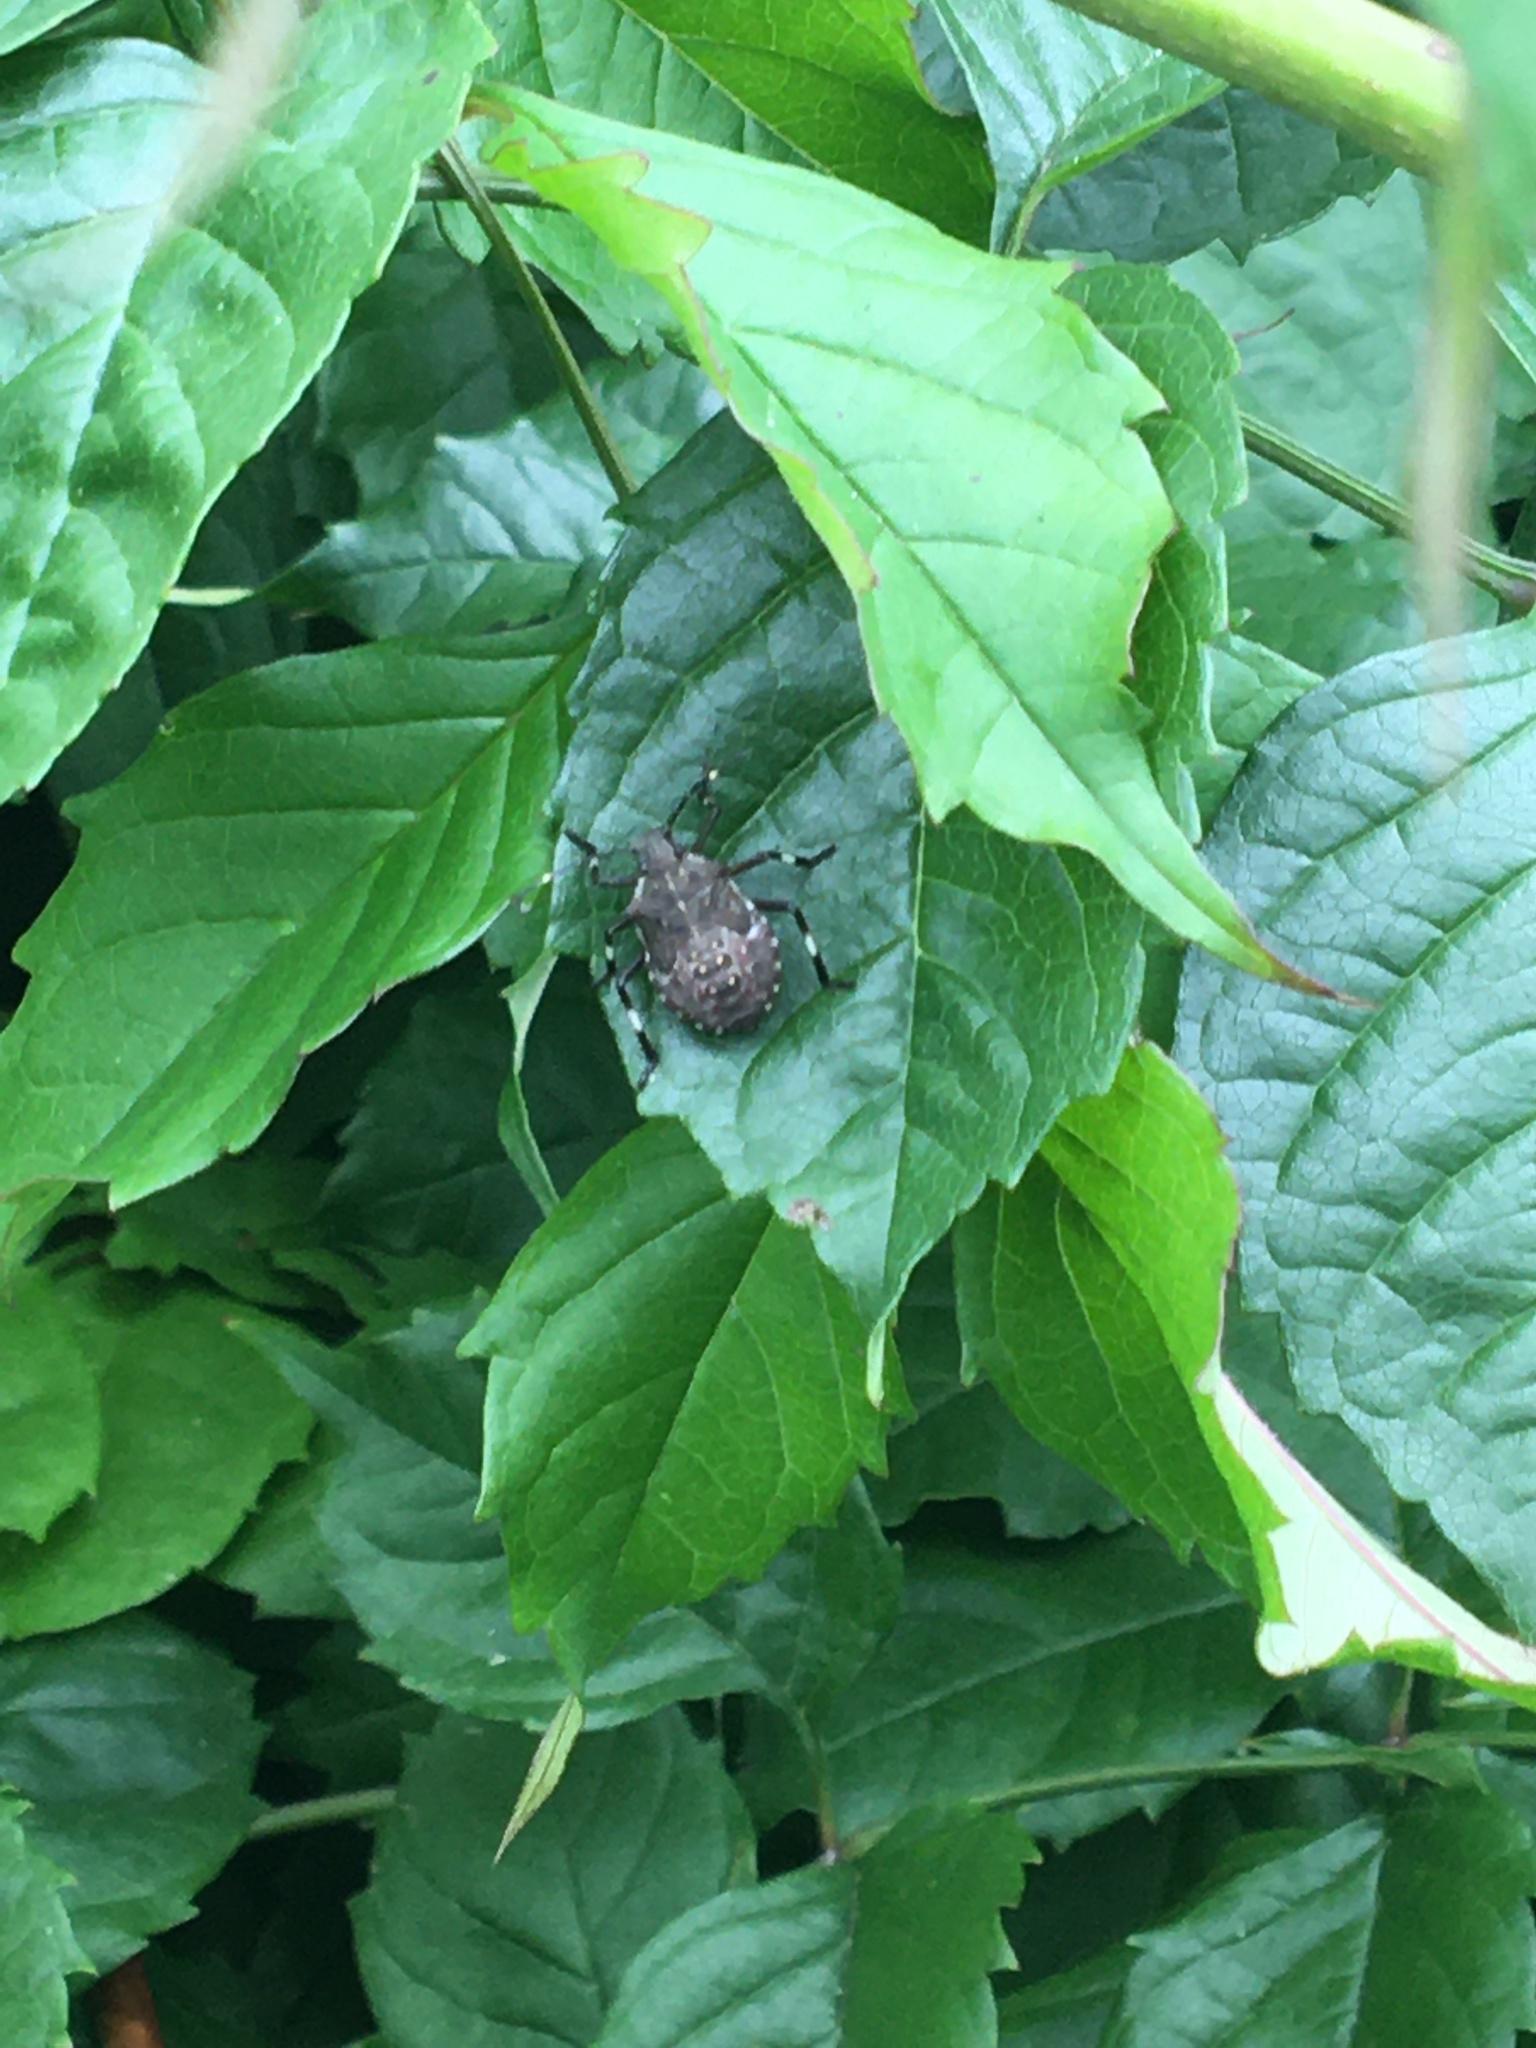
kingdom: Animalia
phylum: Arthropoda
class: Insecta
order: Hemiptera
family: Pentatomidae
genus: Halyomorpha
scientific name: Halyomorpha halys
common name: Brown marmorated stink bug
